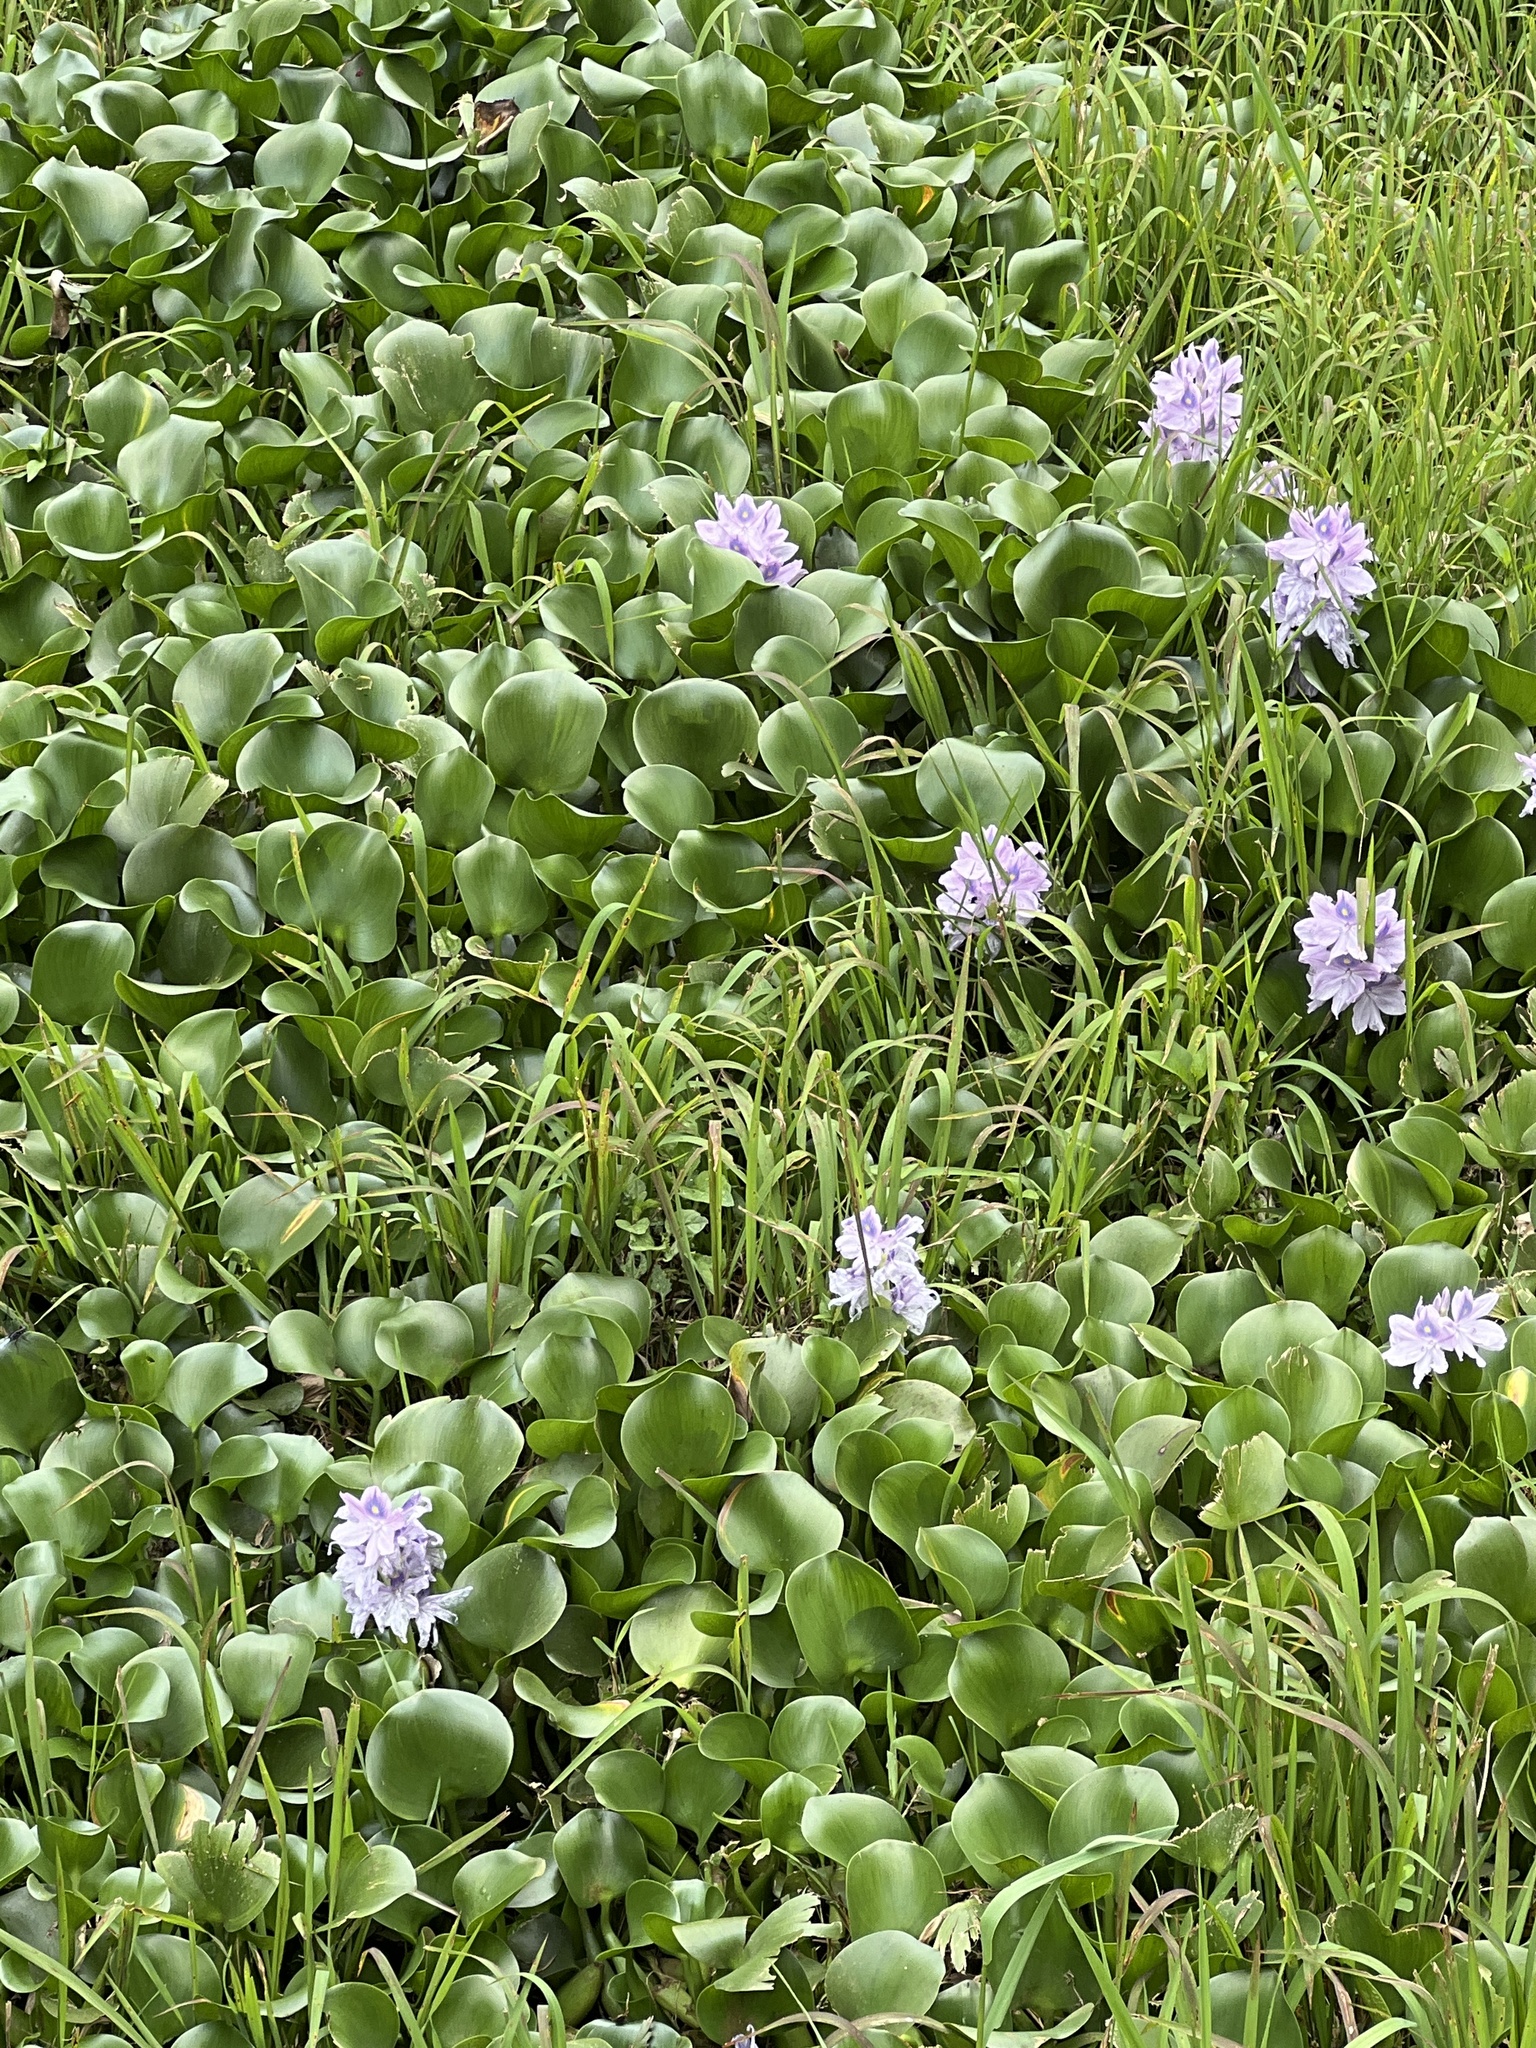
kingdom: Plantae
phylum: Tracheophyta
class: Liliopsida
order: Commelinales
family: Pontederiaceae
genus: Pontederia
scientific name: Pontederia crassipes
